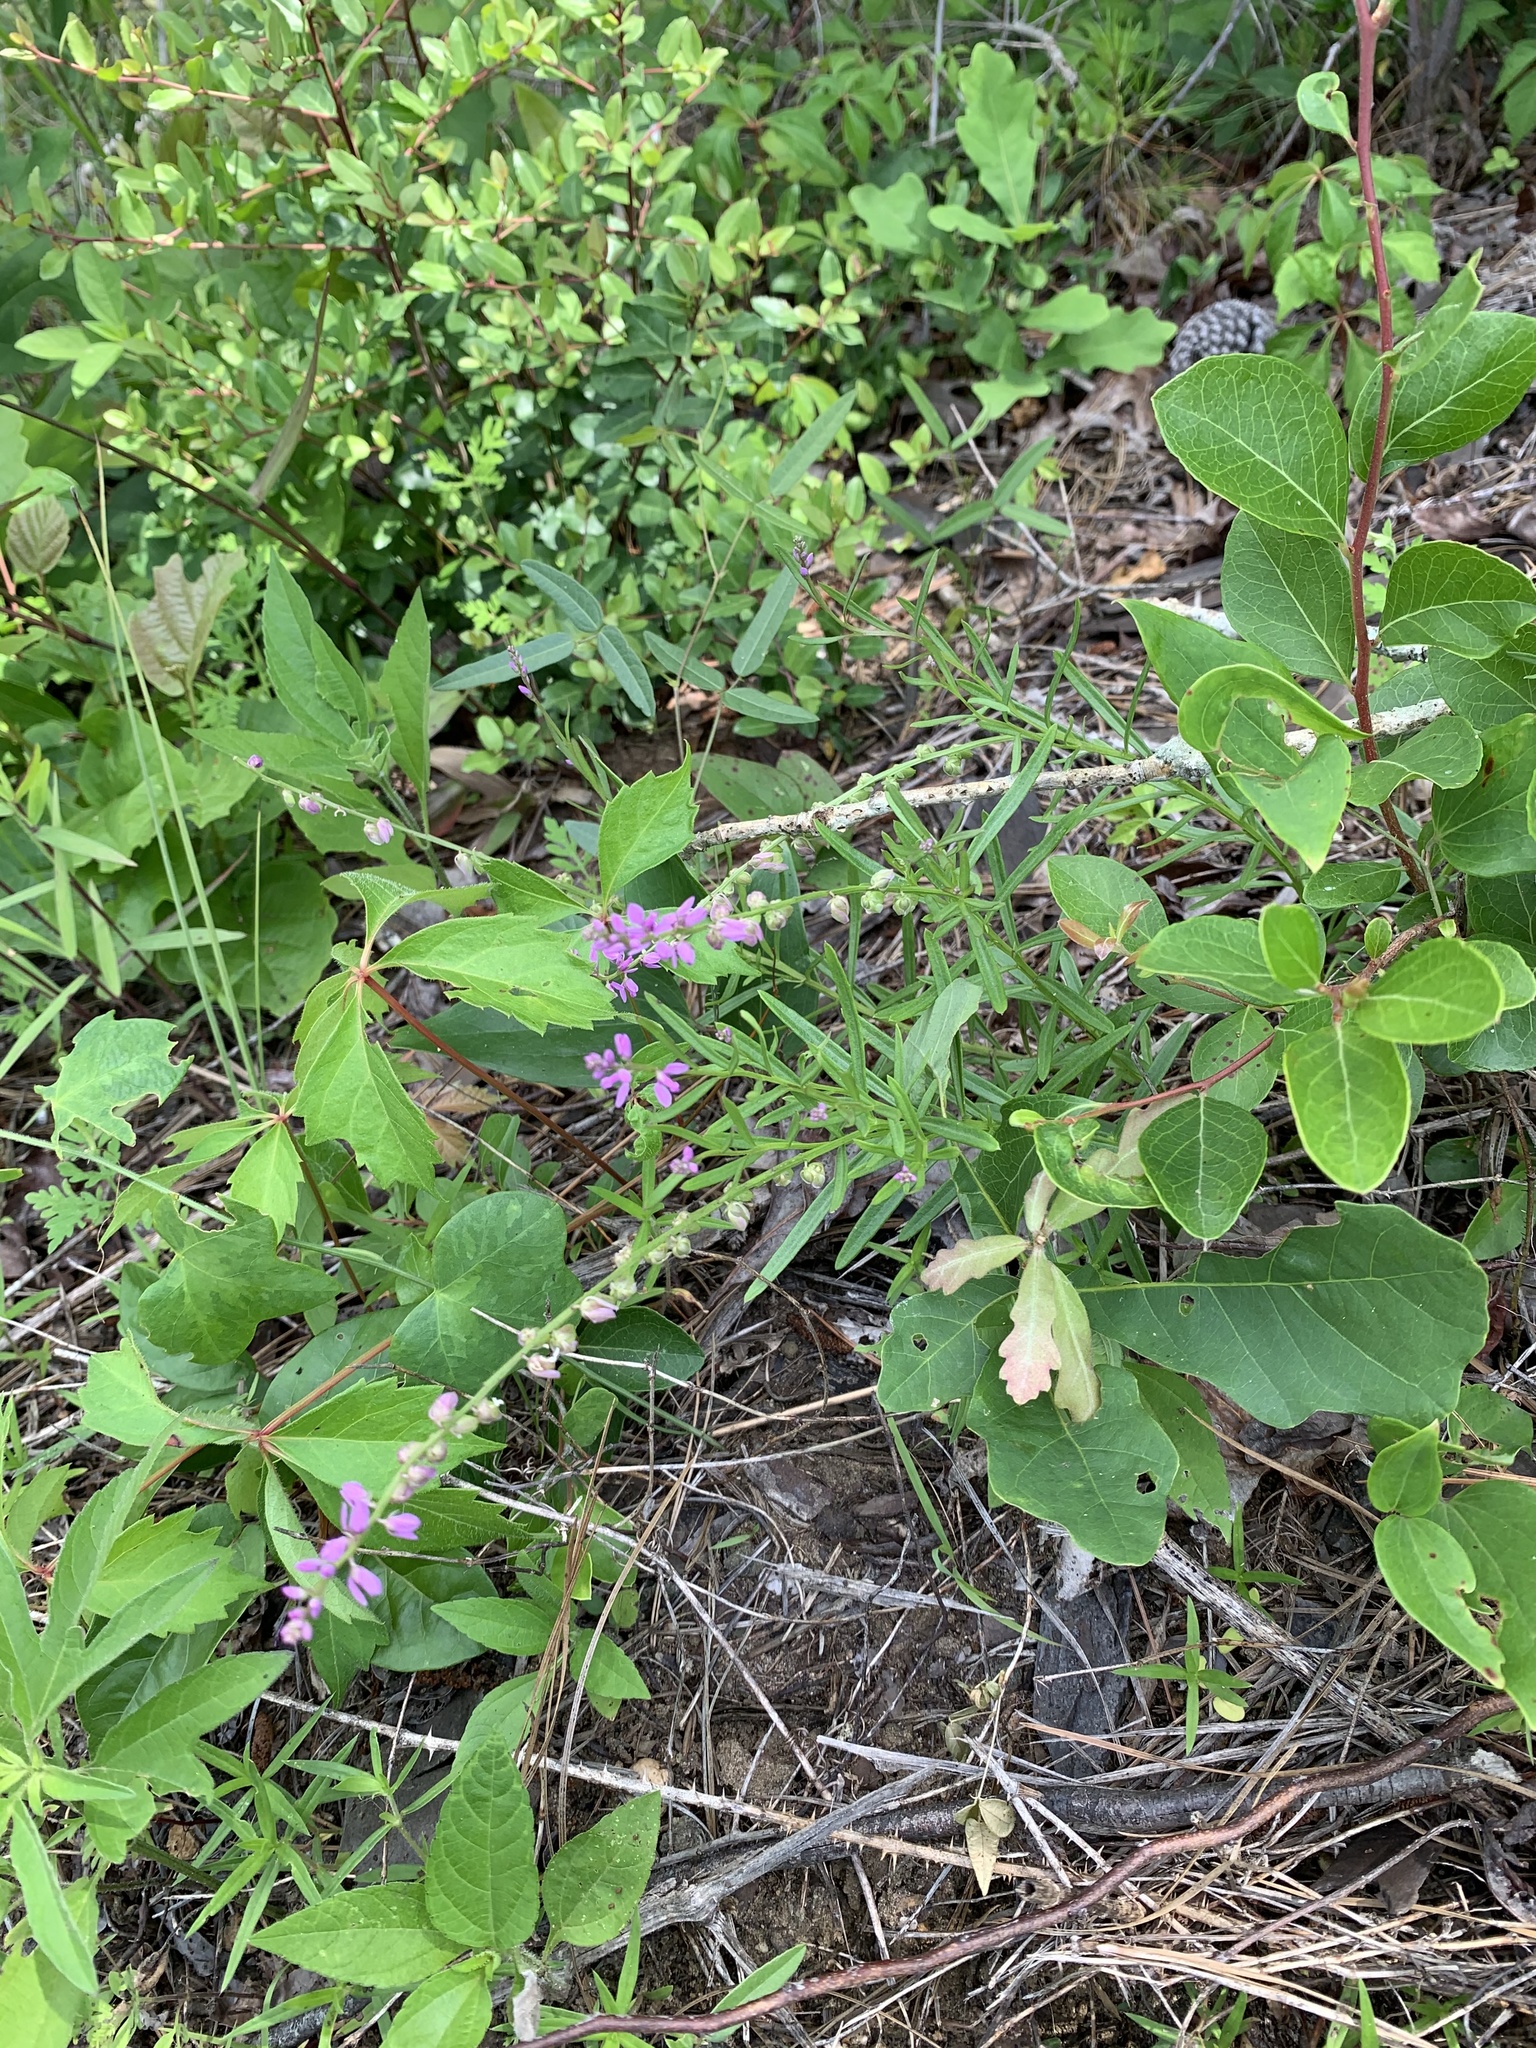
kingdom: Plantae
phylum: Tracheophyta
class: Magnoliopsida
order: Fabales
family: Polygalaceae
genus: Polygala
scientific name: Polygala polygama
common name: Bitter milkwort
